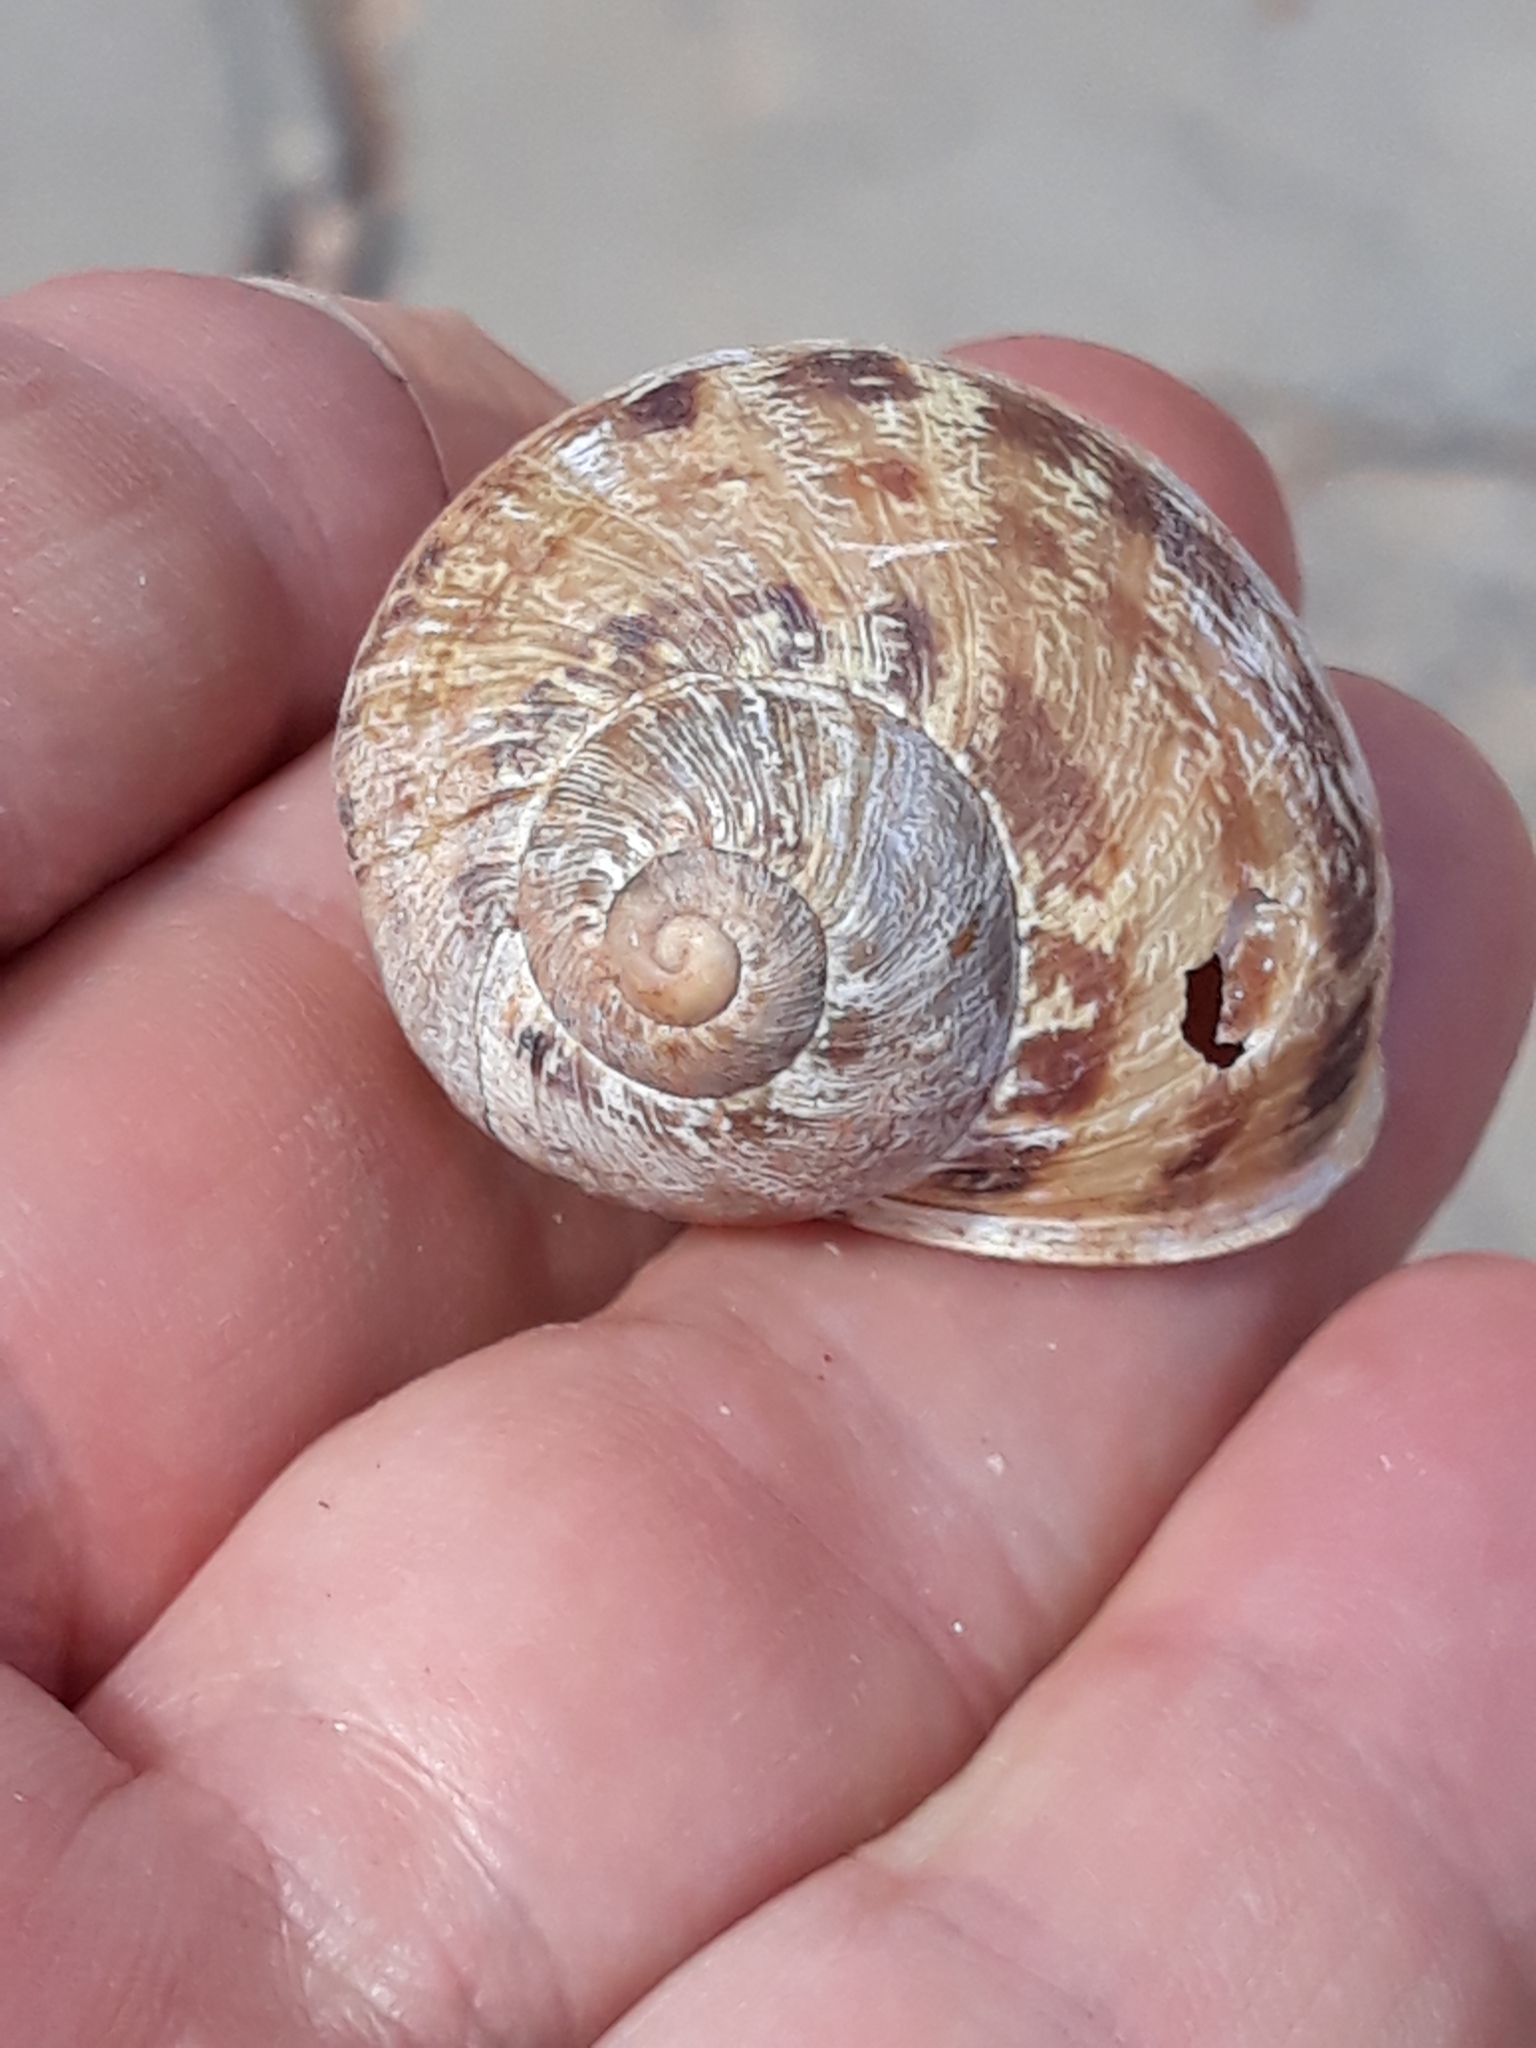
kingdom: Animalia
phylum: Mollusca
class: Gastropoda
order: Stylommatophora
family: Helicidae
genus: Cornu
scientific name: Cornu aspersum
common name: Brown garden snail
